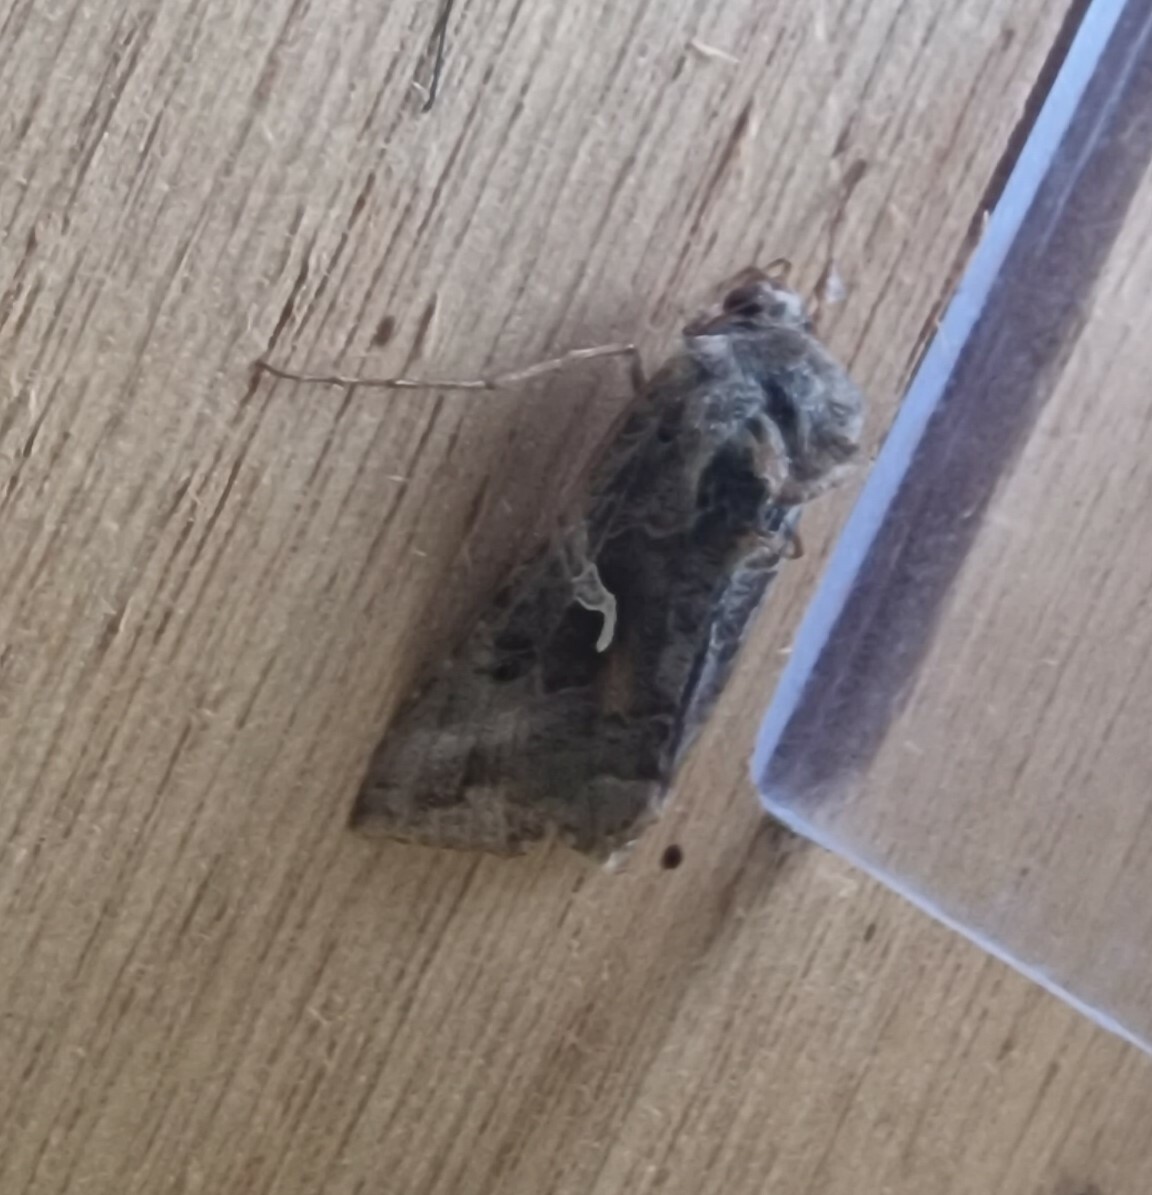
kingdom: Animalia
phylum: Arthropoda
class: Insecta
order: Lepidoptera
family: Noctuidae
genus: Autographa
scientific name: Autographa gamma
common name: Silver y
